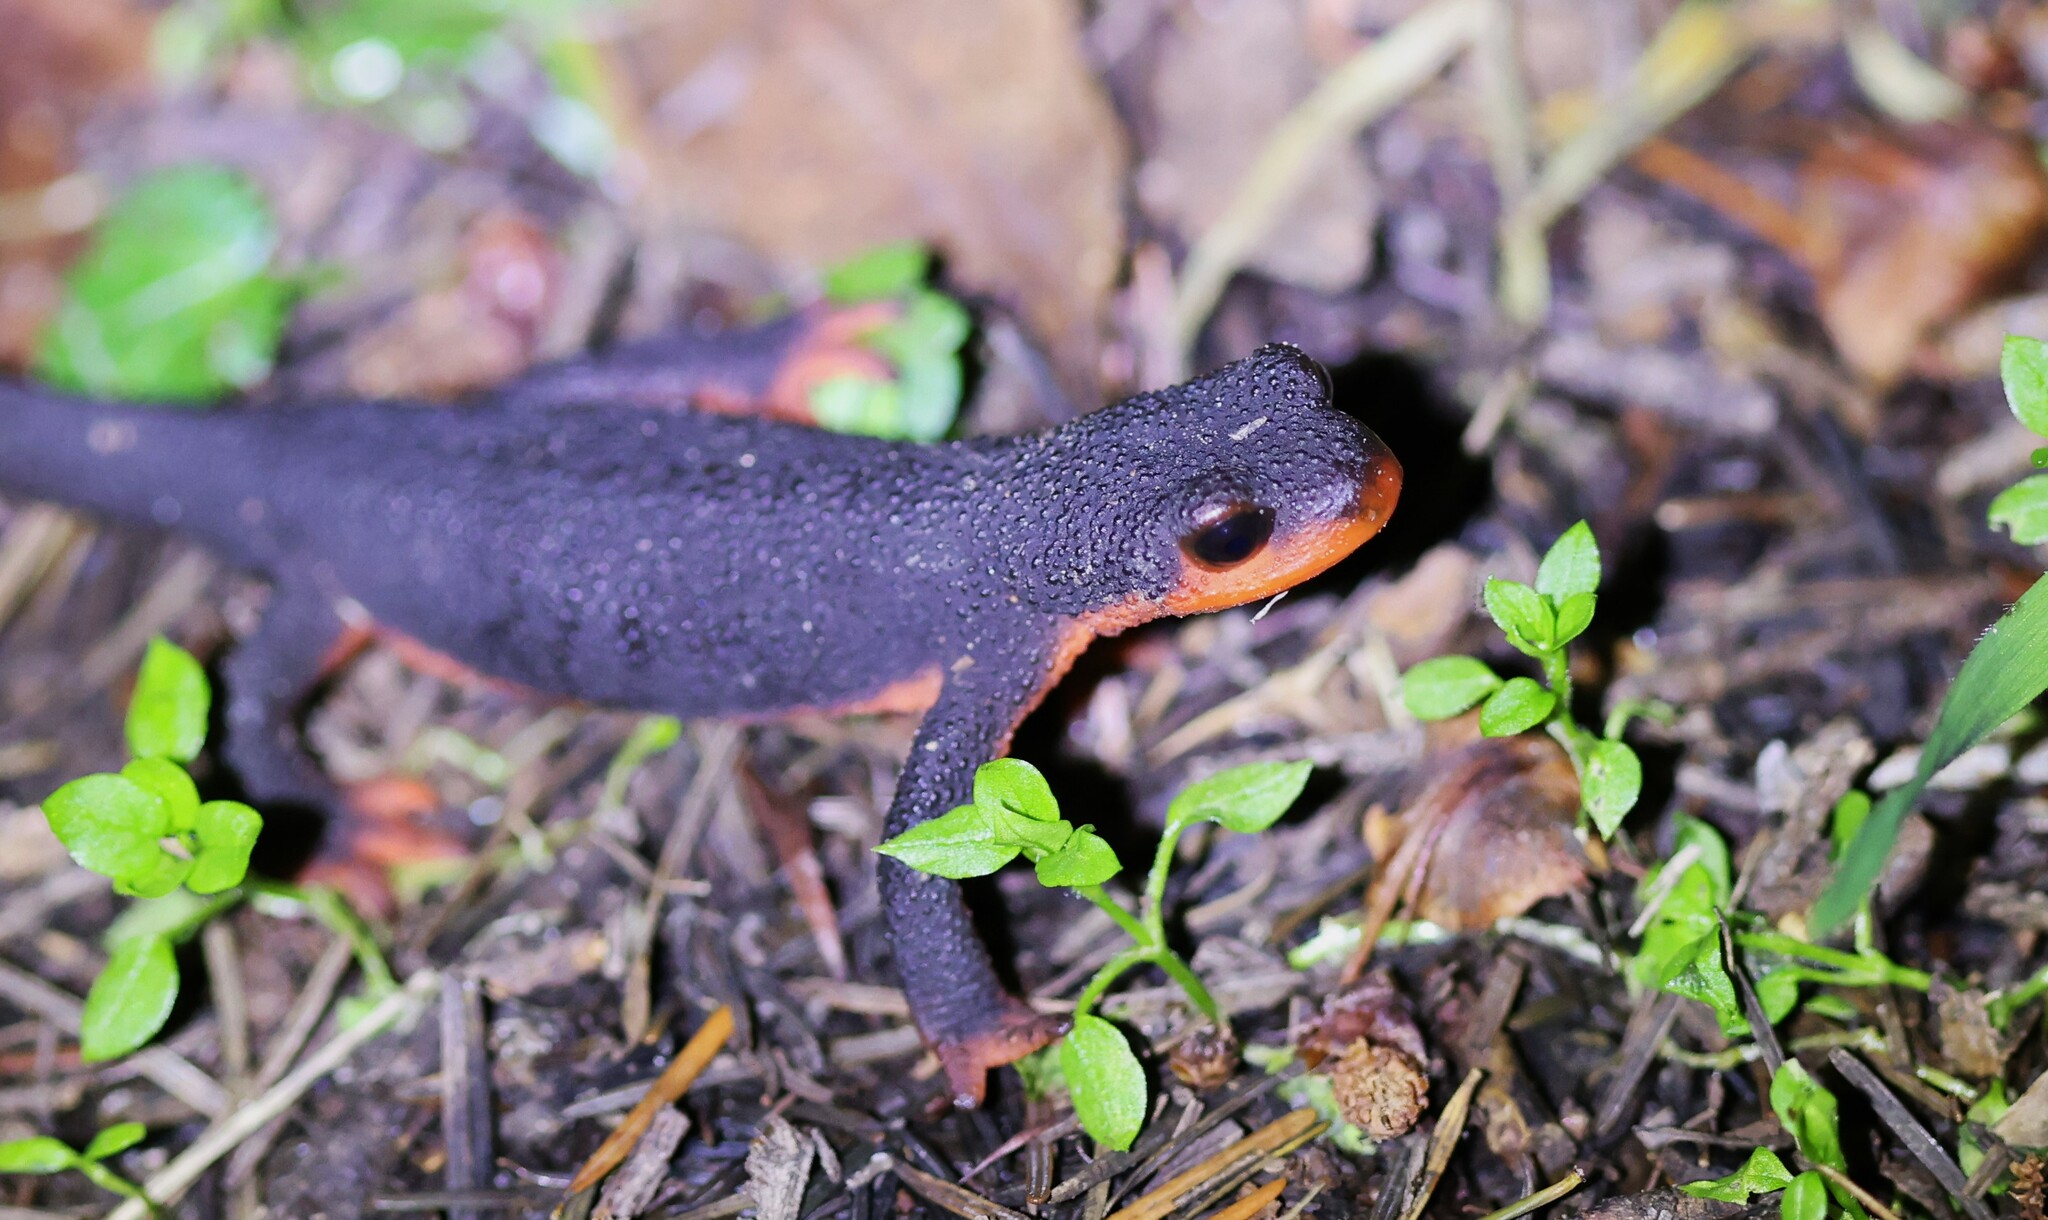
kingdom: Animalia
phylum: Chordata
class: Amphibia
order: Caudata
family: Salamandridae
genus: Taricha
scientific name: Taricha rivularis
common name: Red-bellied newt
